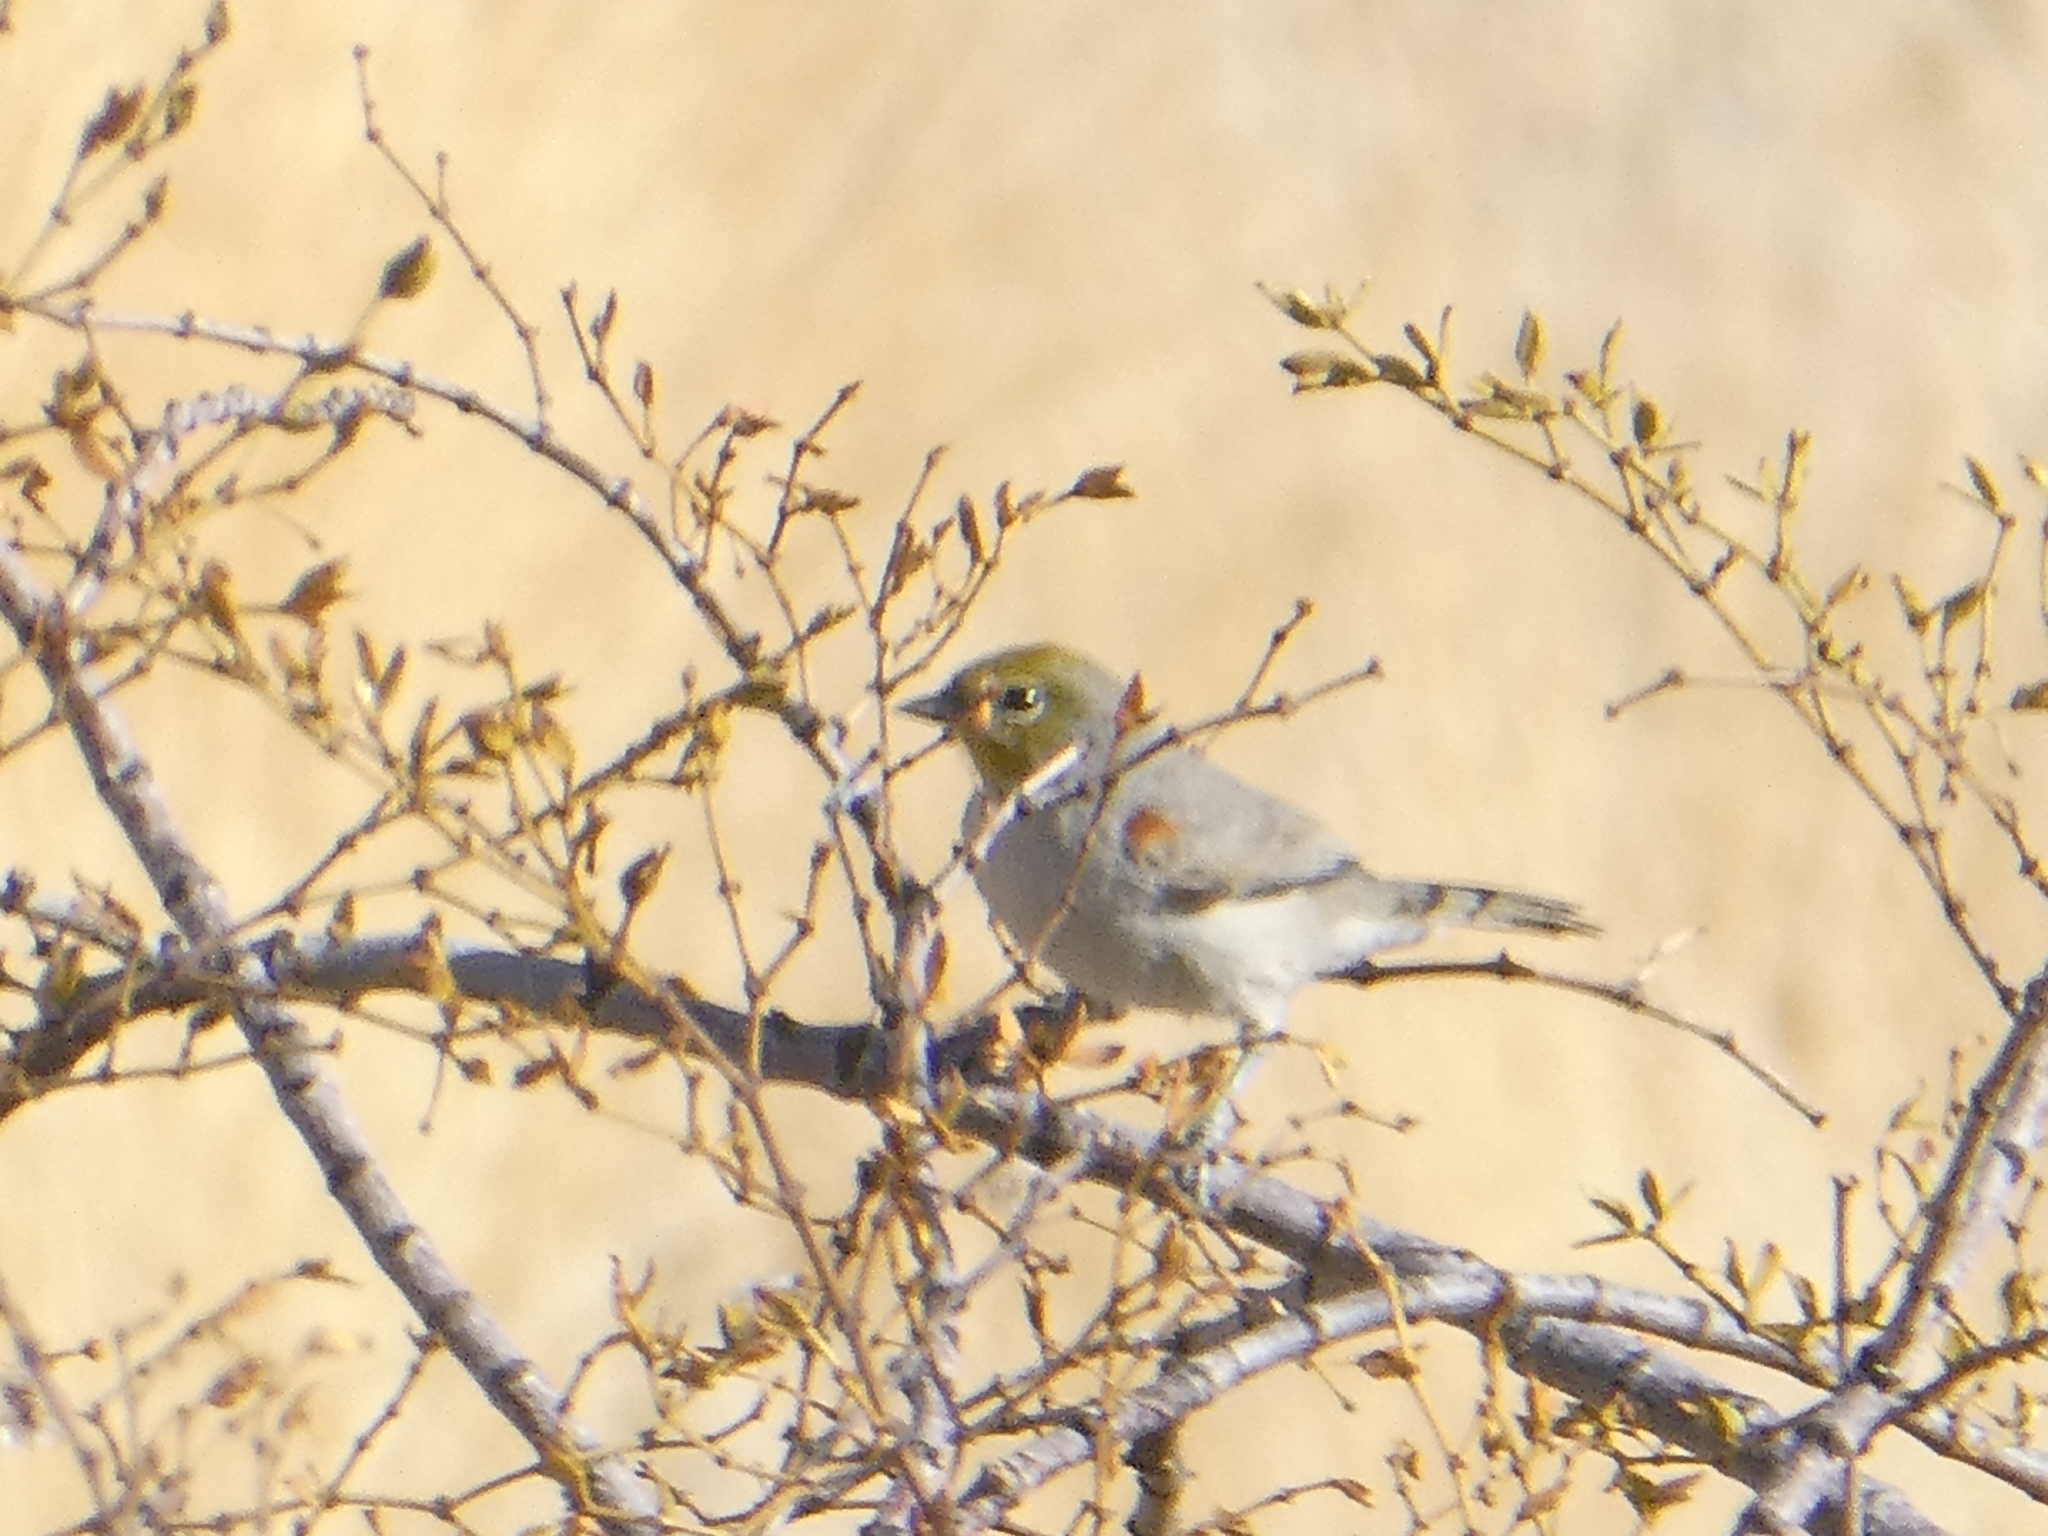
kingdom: Animalia
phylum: Chordata
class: Aves
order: Passeriformes
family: Remizidae
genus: Auriparus
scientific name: Auriparus flaviceps
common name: Verdin
